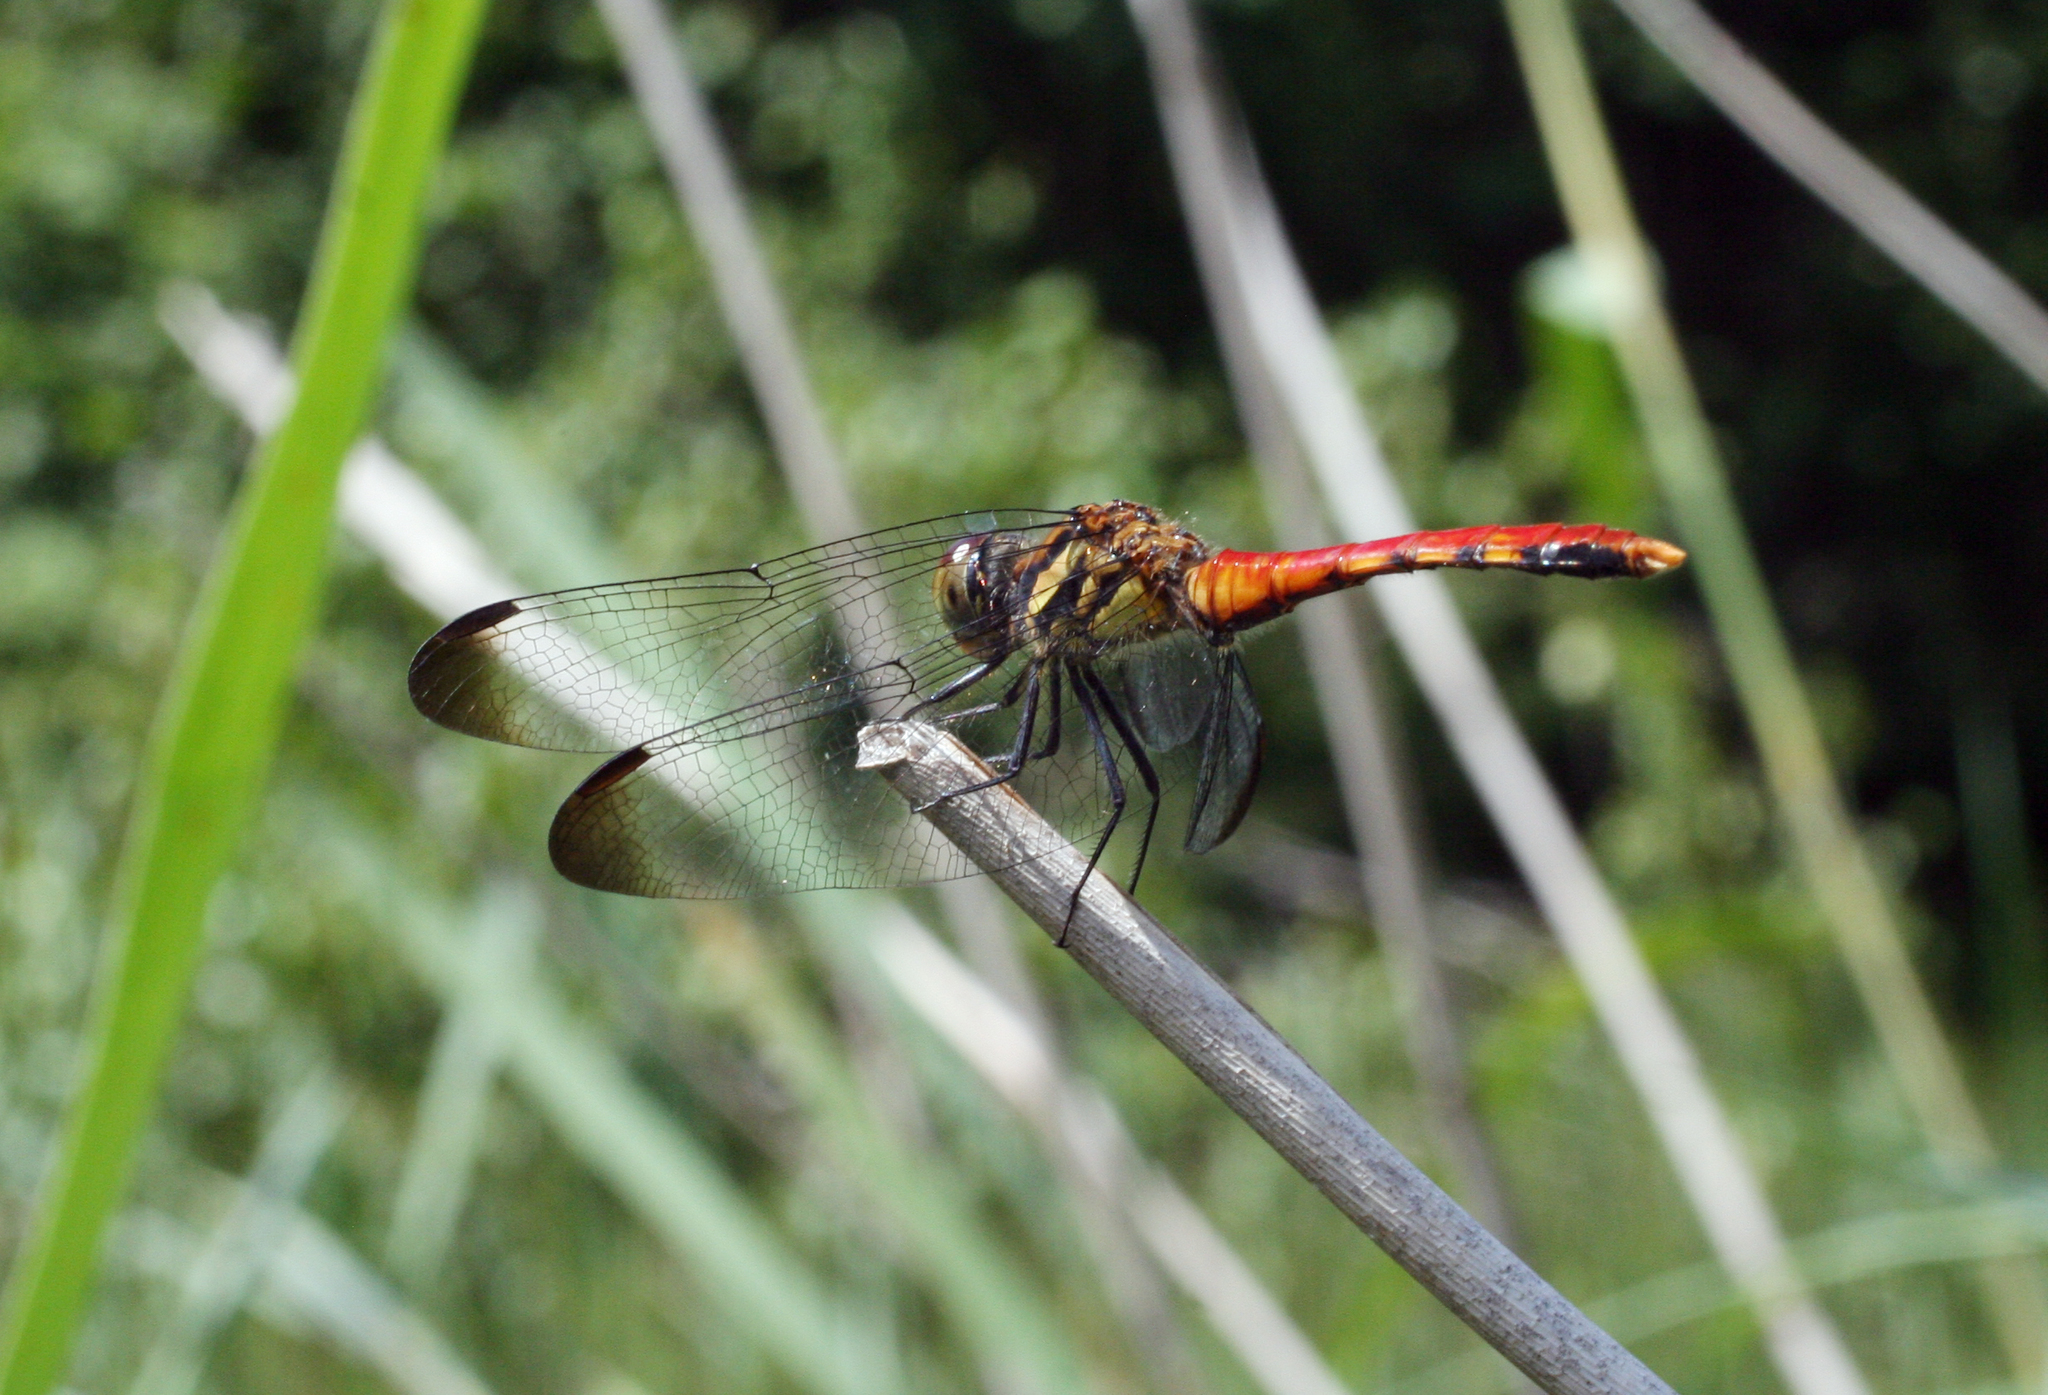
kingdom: Animalia
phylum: Arthropoda
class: Insecta
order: Odonata
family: Libellulidae
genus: Sympetrum
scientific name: Sympetrum risi
